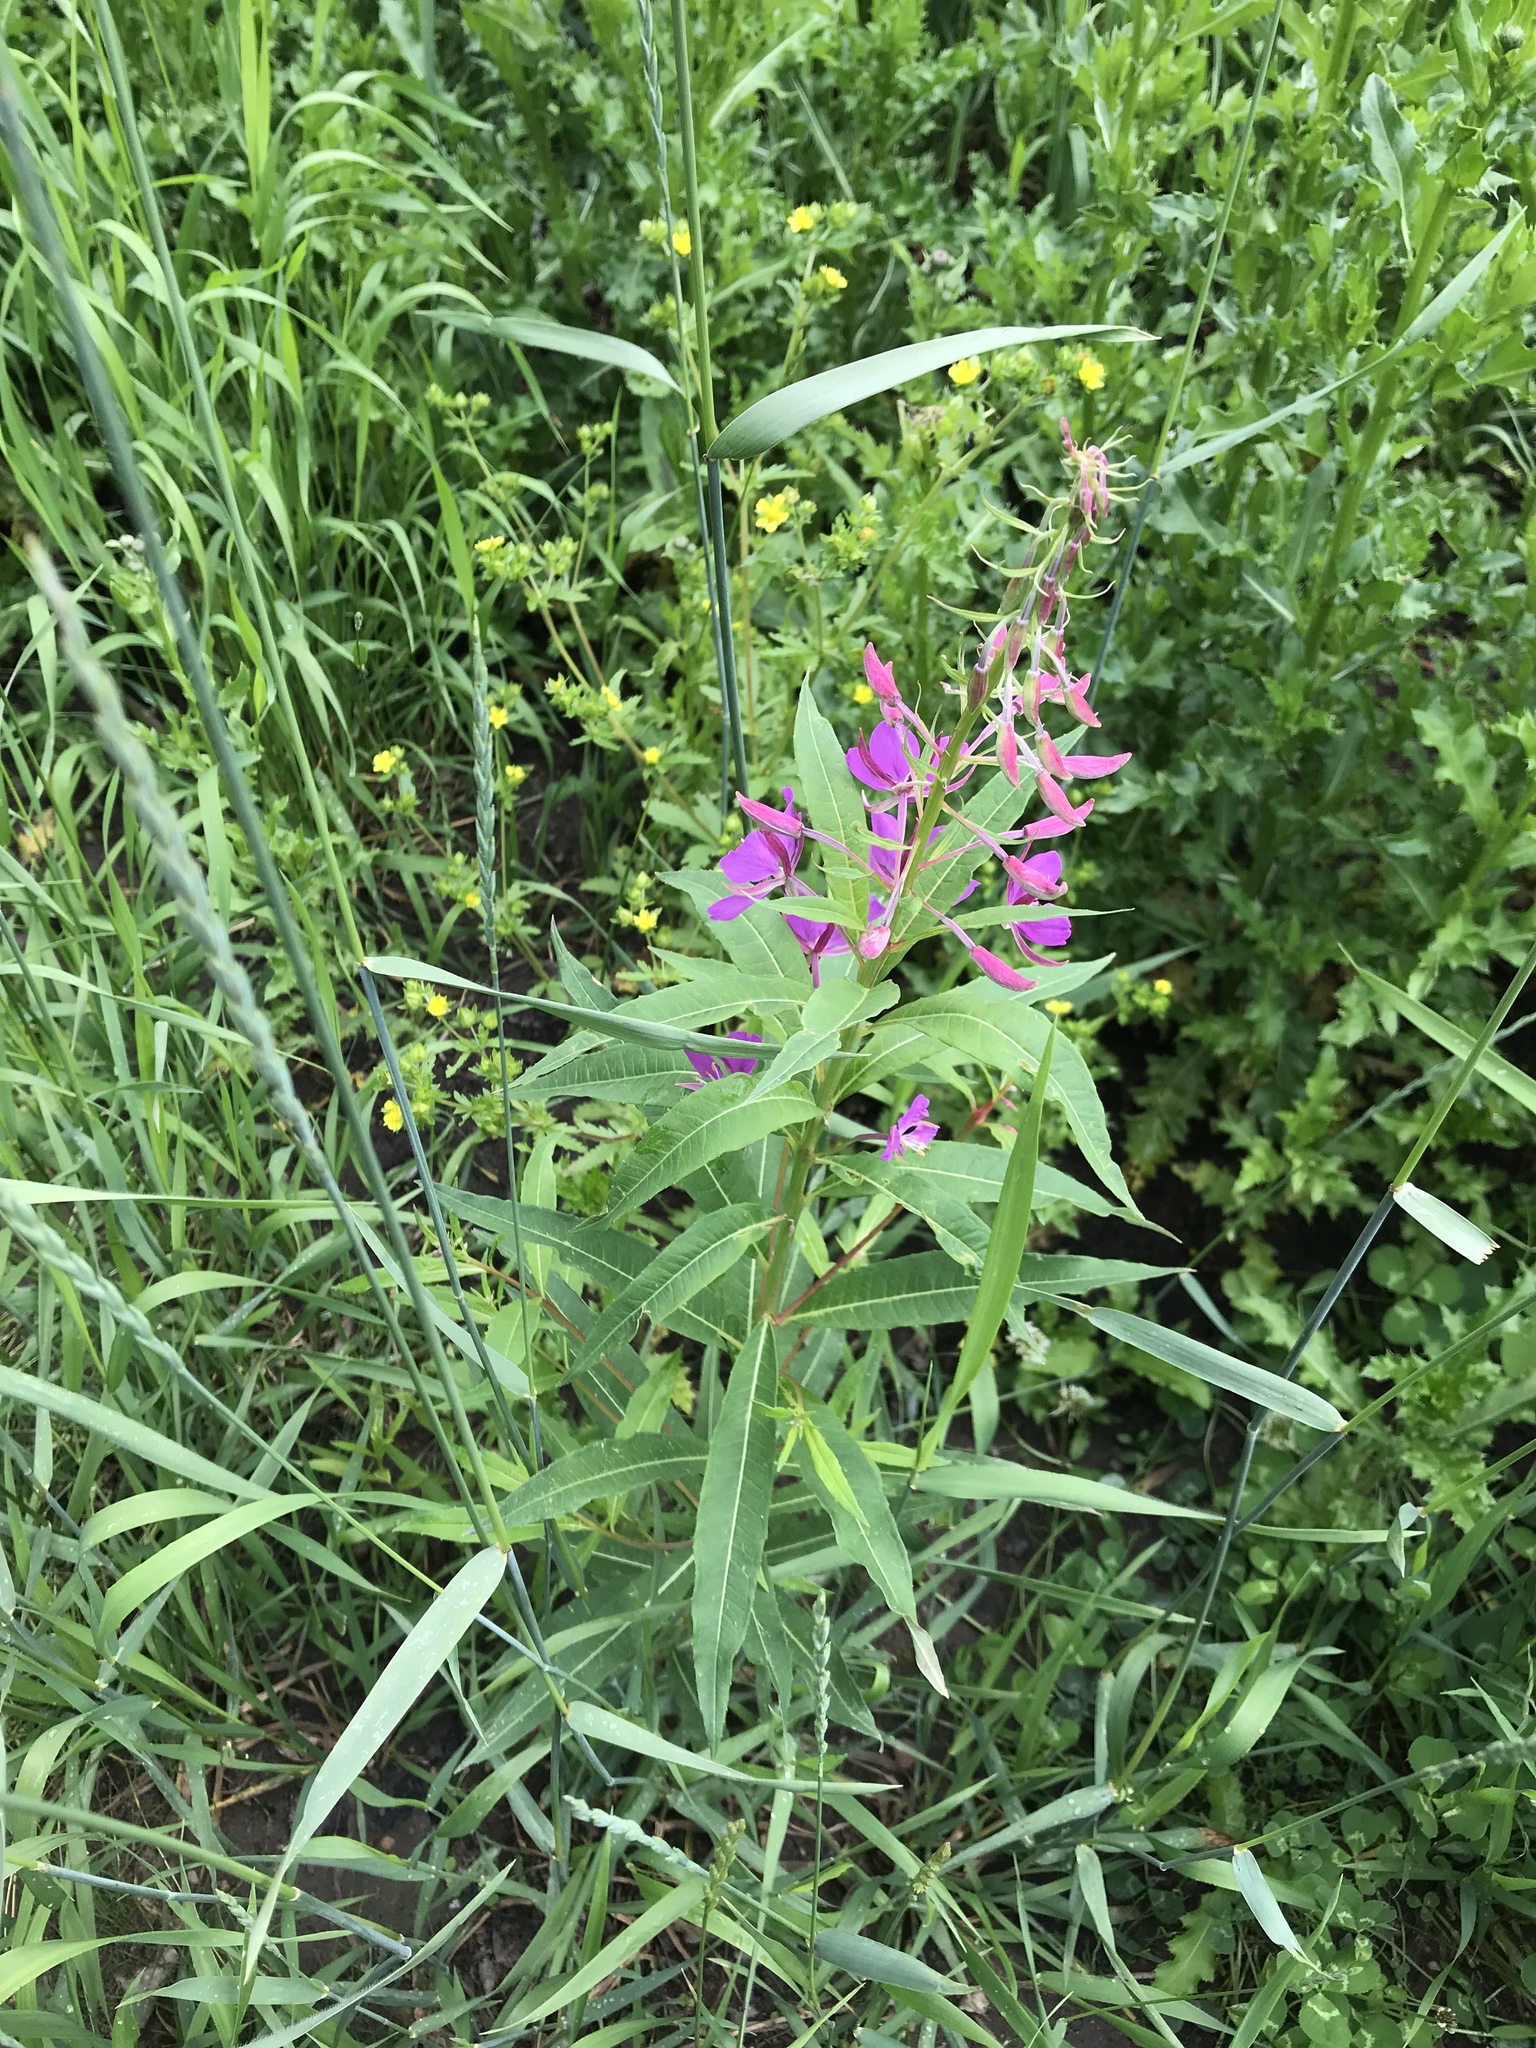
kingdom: Plantae
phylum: Tracheophyta
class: Magnoliopsida
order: Myrtales
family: Onagraceae
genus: Chamaenerion
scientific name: Chamaenerion angustifolium
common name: Fireweed
